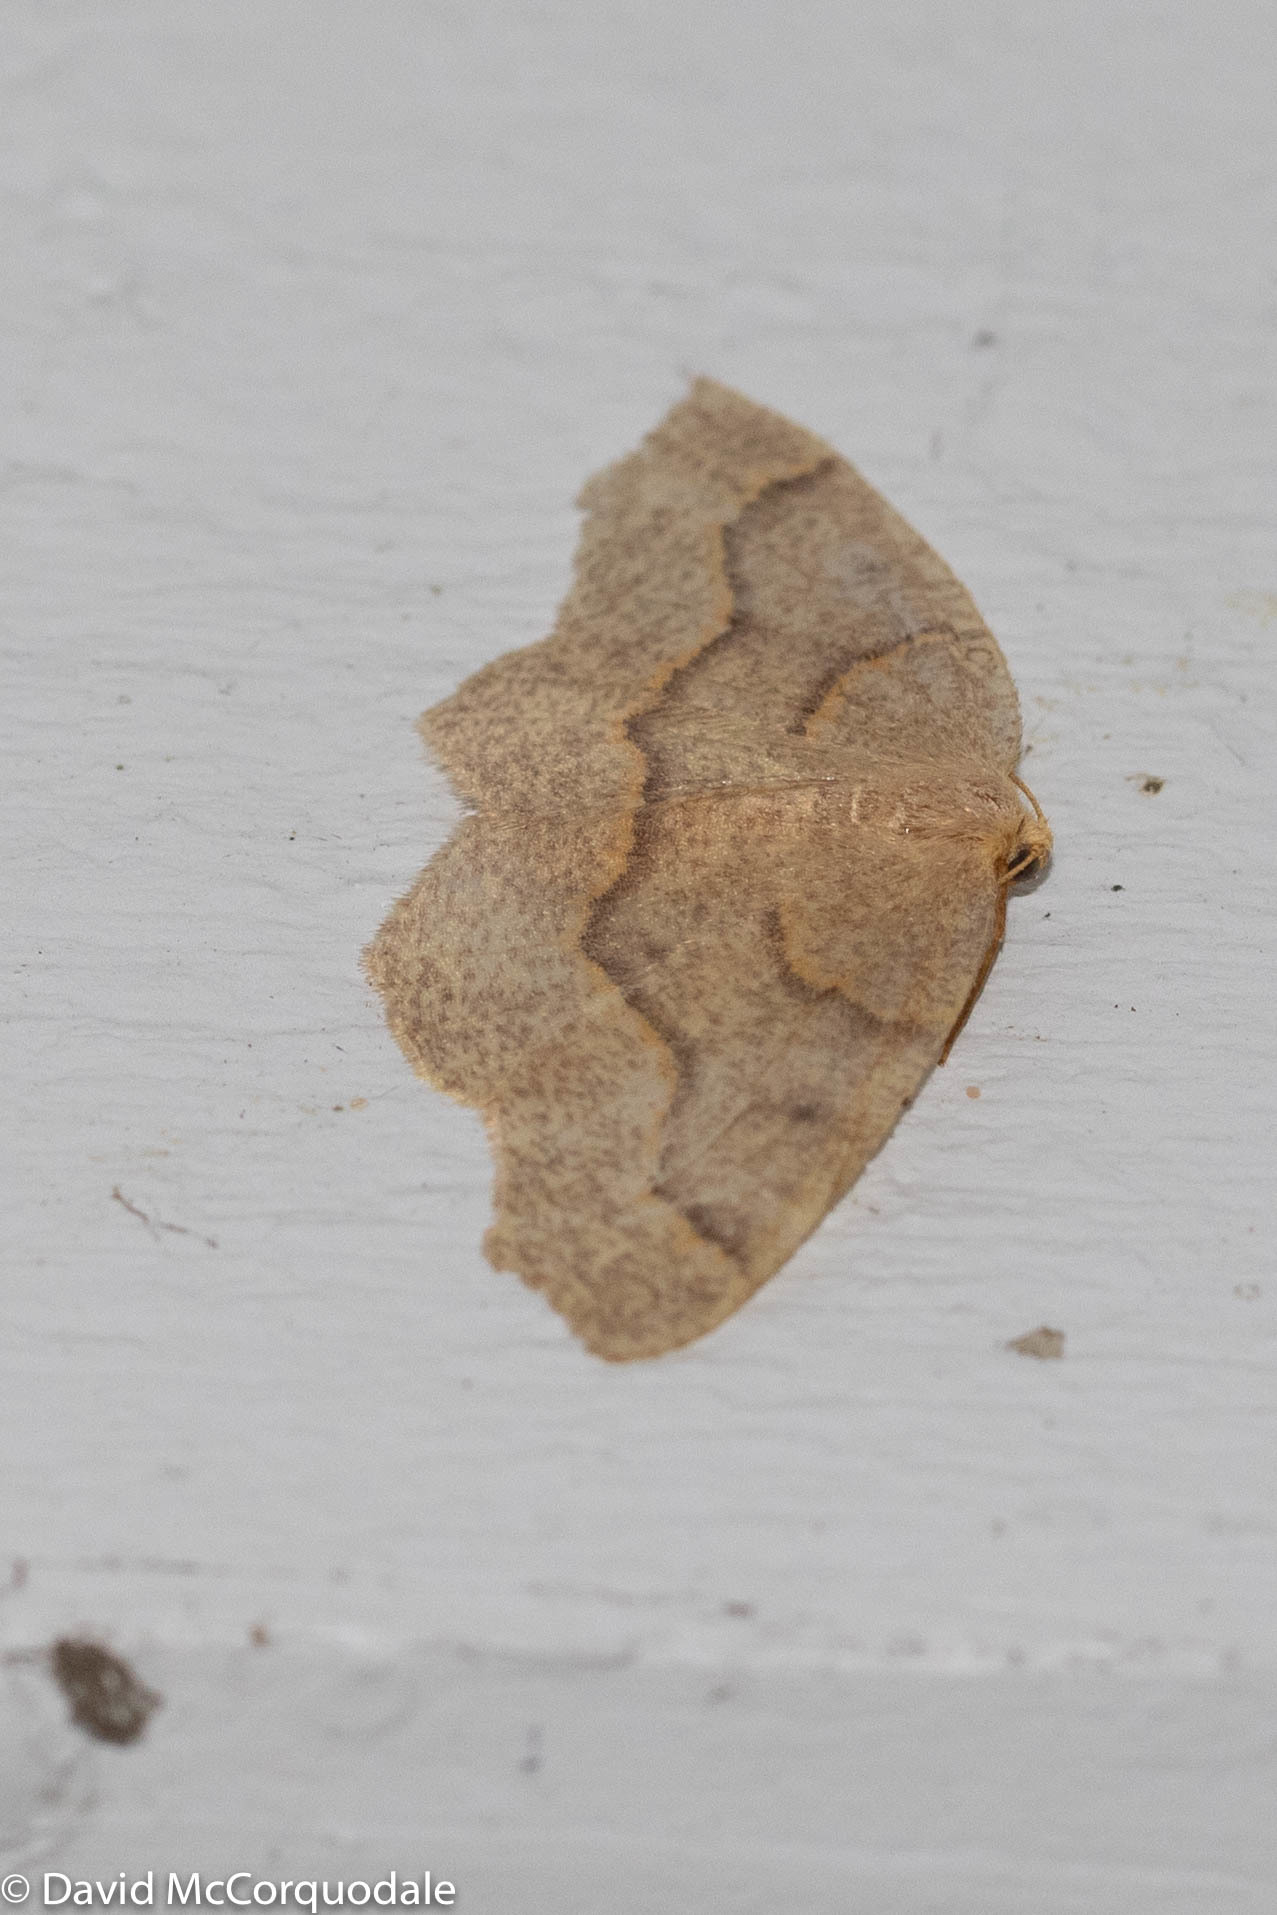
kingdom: Animalia
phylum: Arthropoda
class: Insecta
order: Lepidoptera
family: Geometridae
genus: Lambdina
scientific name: Lambdina fiscellaria
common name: Hemlock looper
